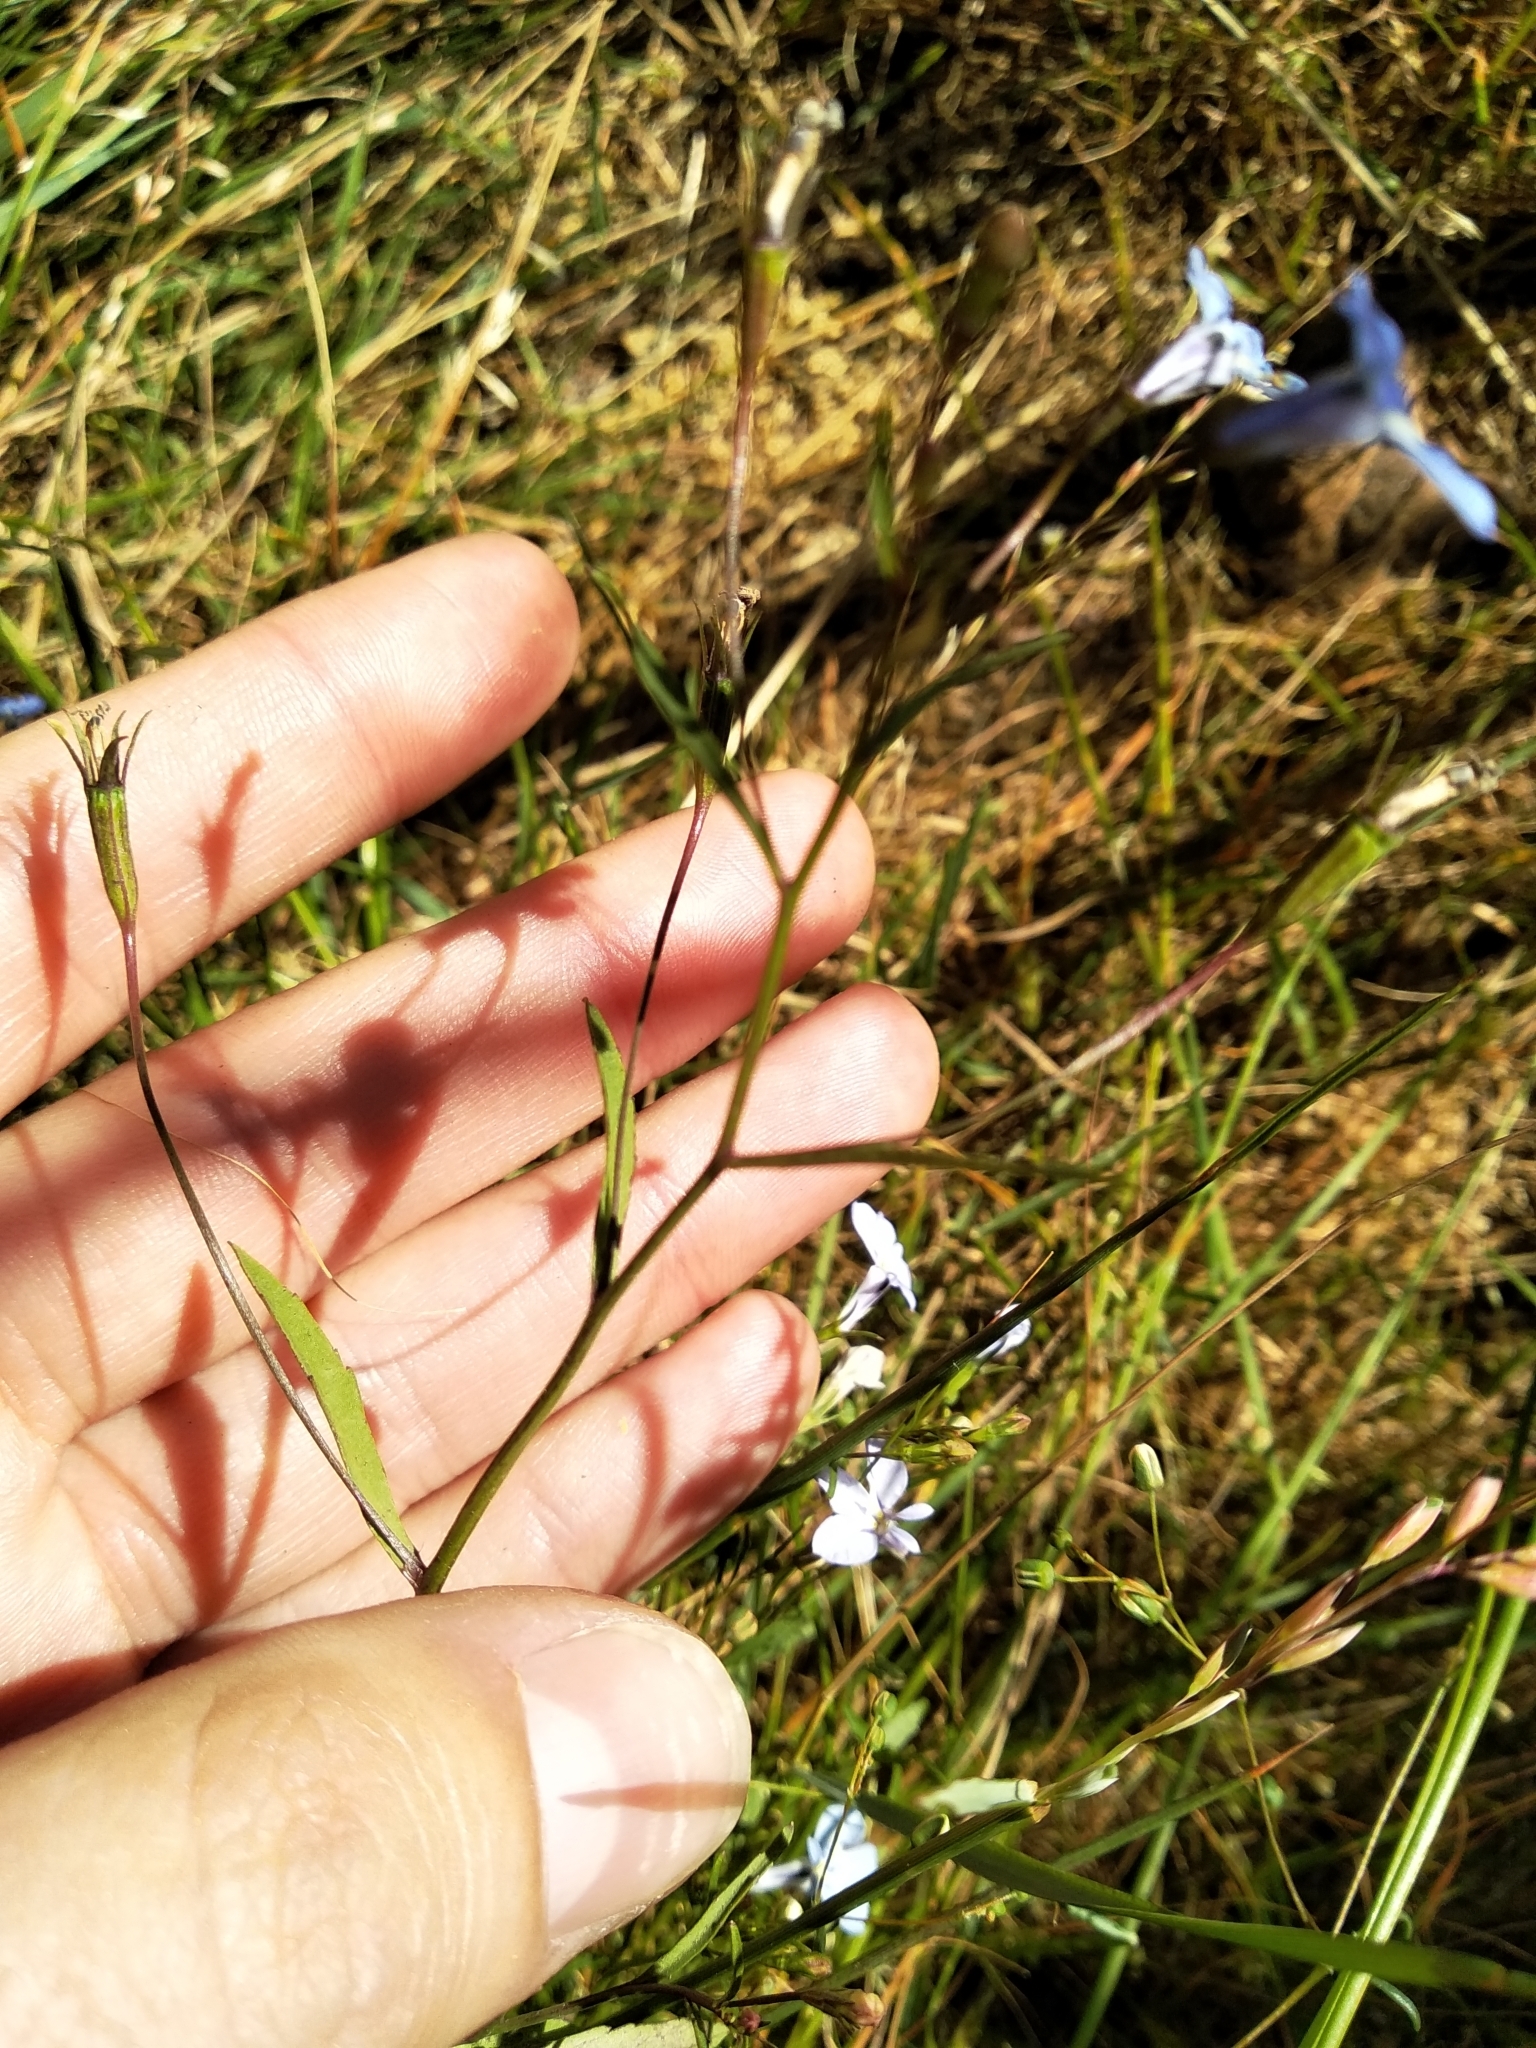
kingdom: Plantae
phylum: Tracheophyta
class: Magnoliopsida
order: Asterales
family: Campanulaceae
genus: Lobelia
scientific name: Lobelia erinus
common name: Edging lobelia
